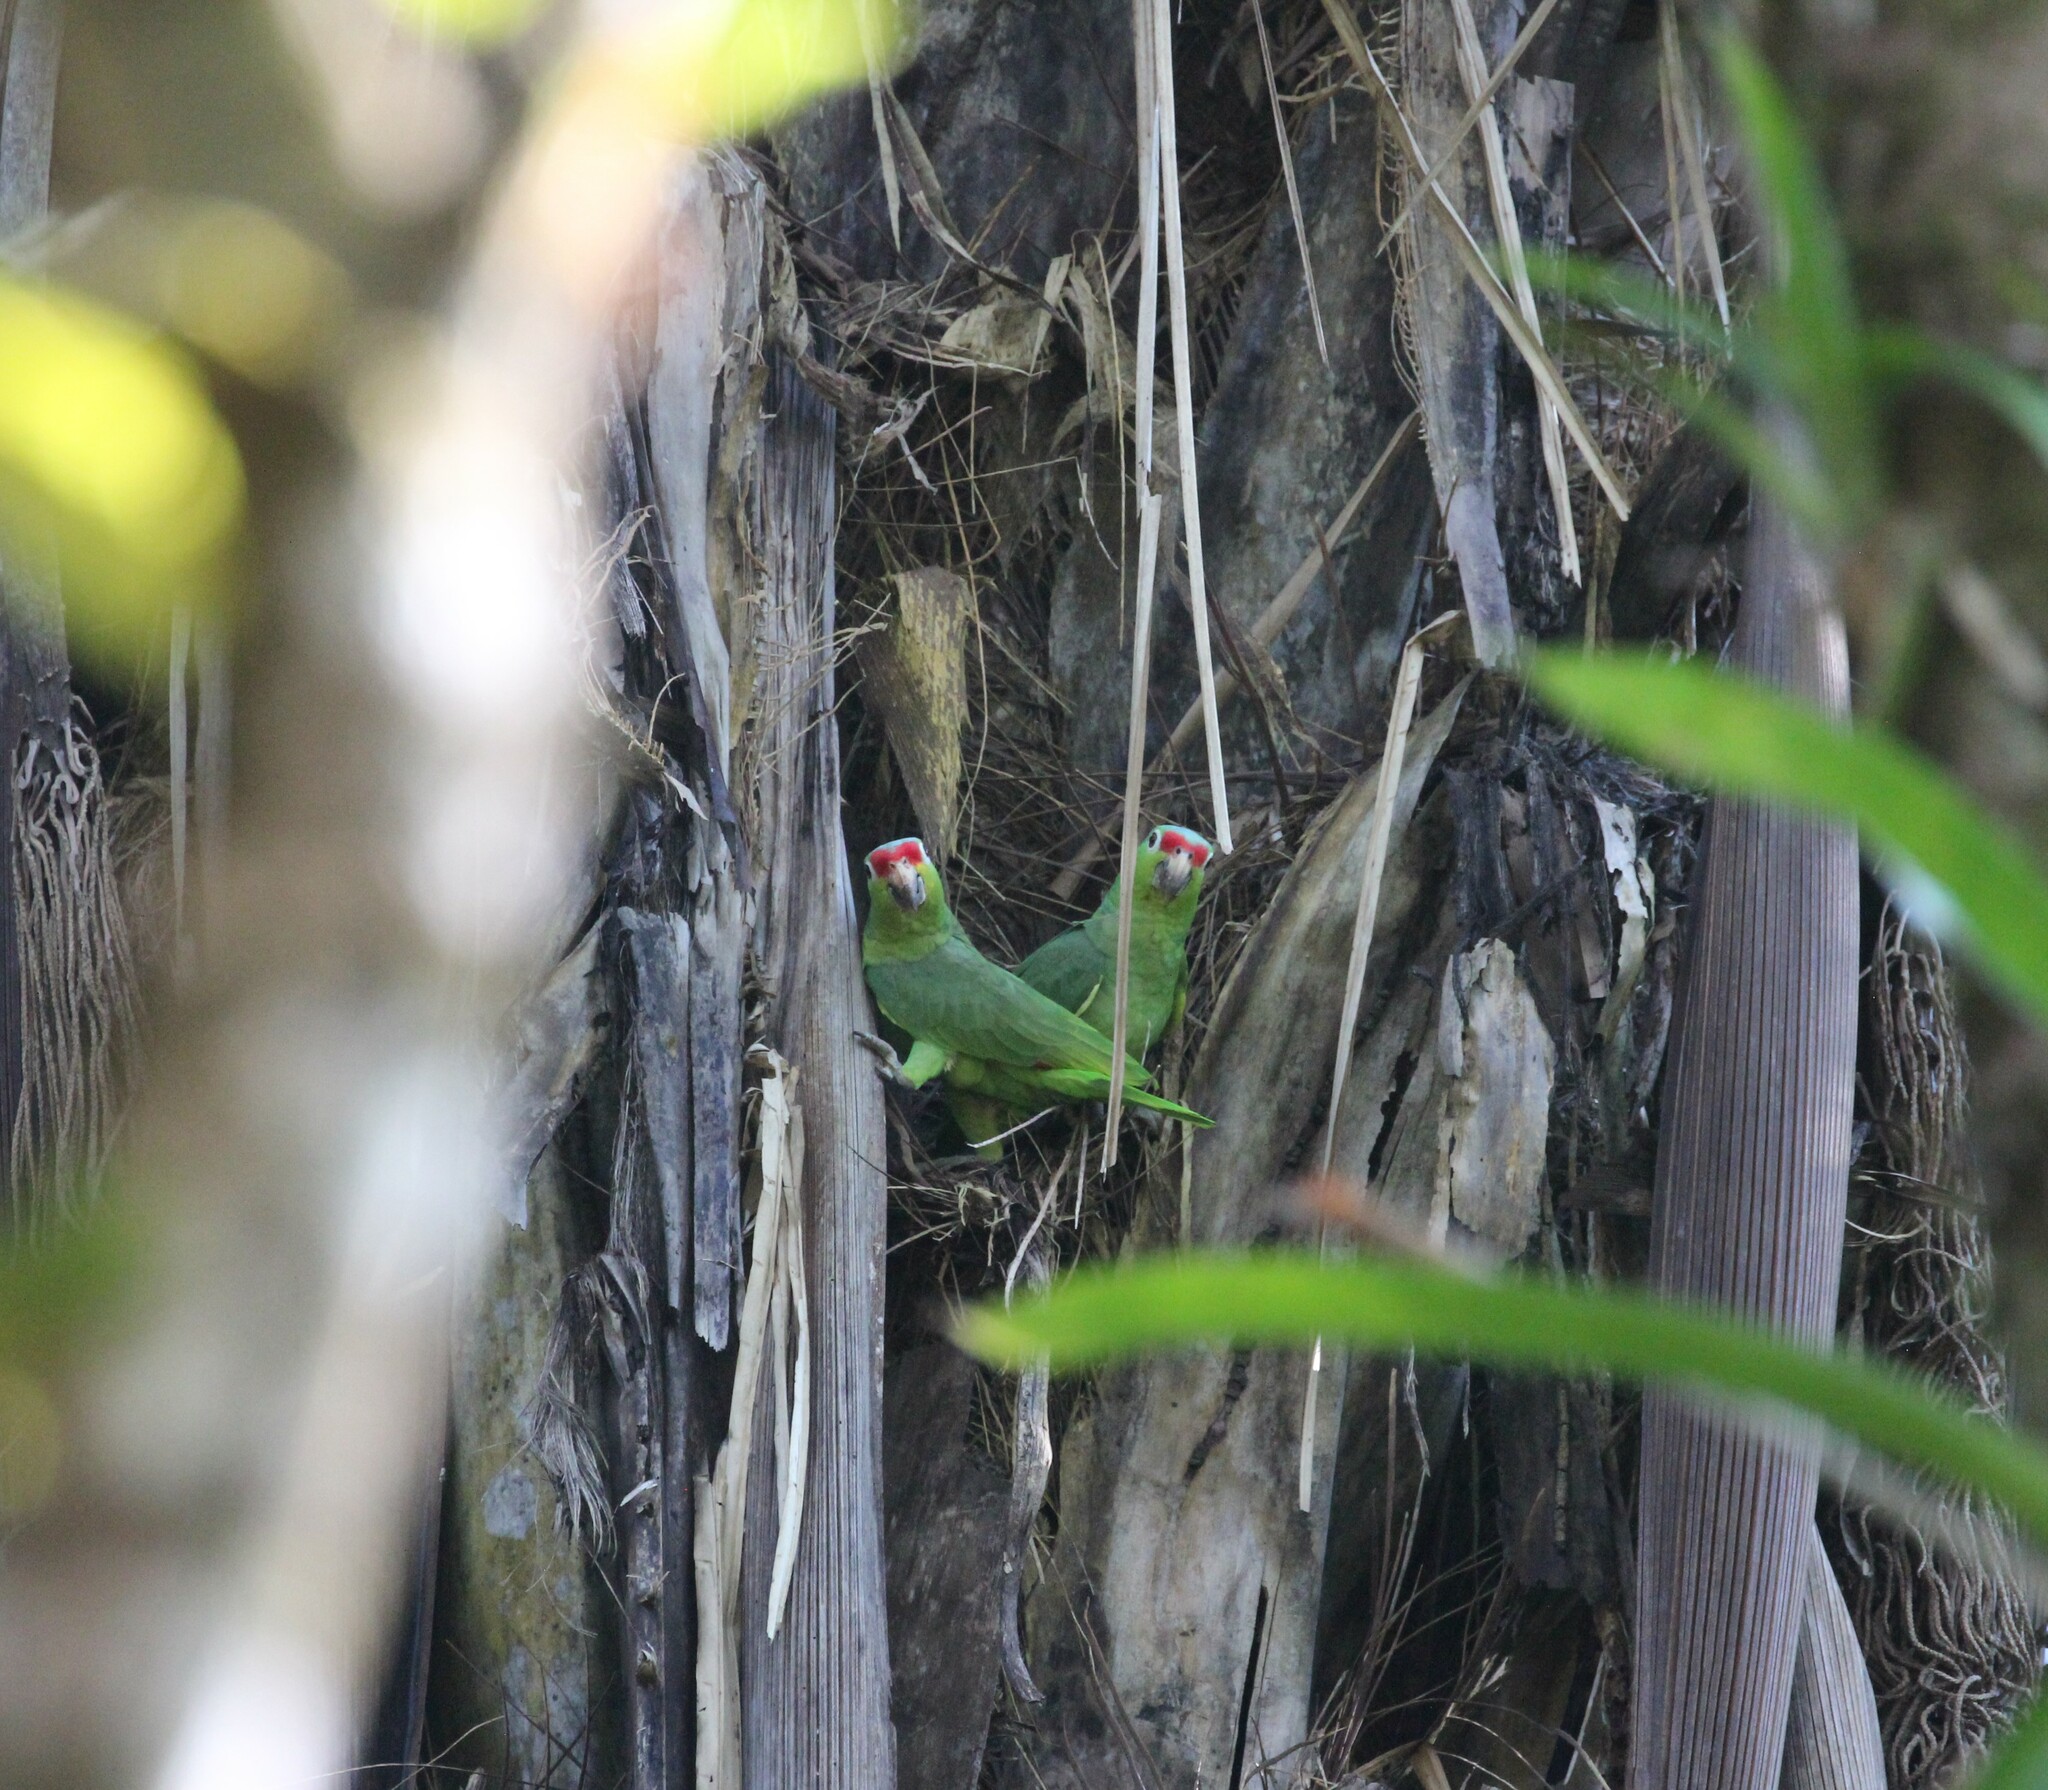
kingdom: Animalia
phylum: Chordata
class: Aves
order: Psittaciformes
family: Psittacidae
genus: Amazona
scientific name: Amazona autumnalis
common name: Red-lored amazon
